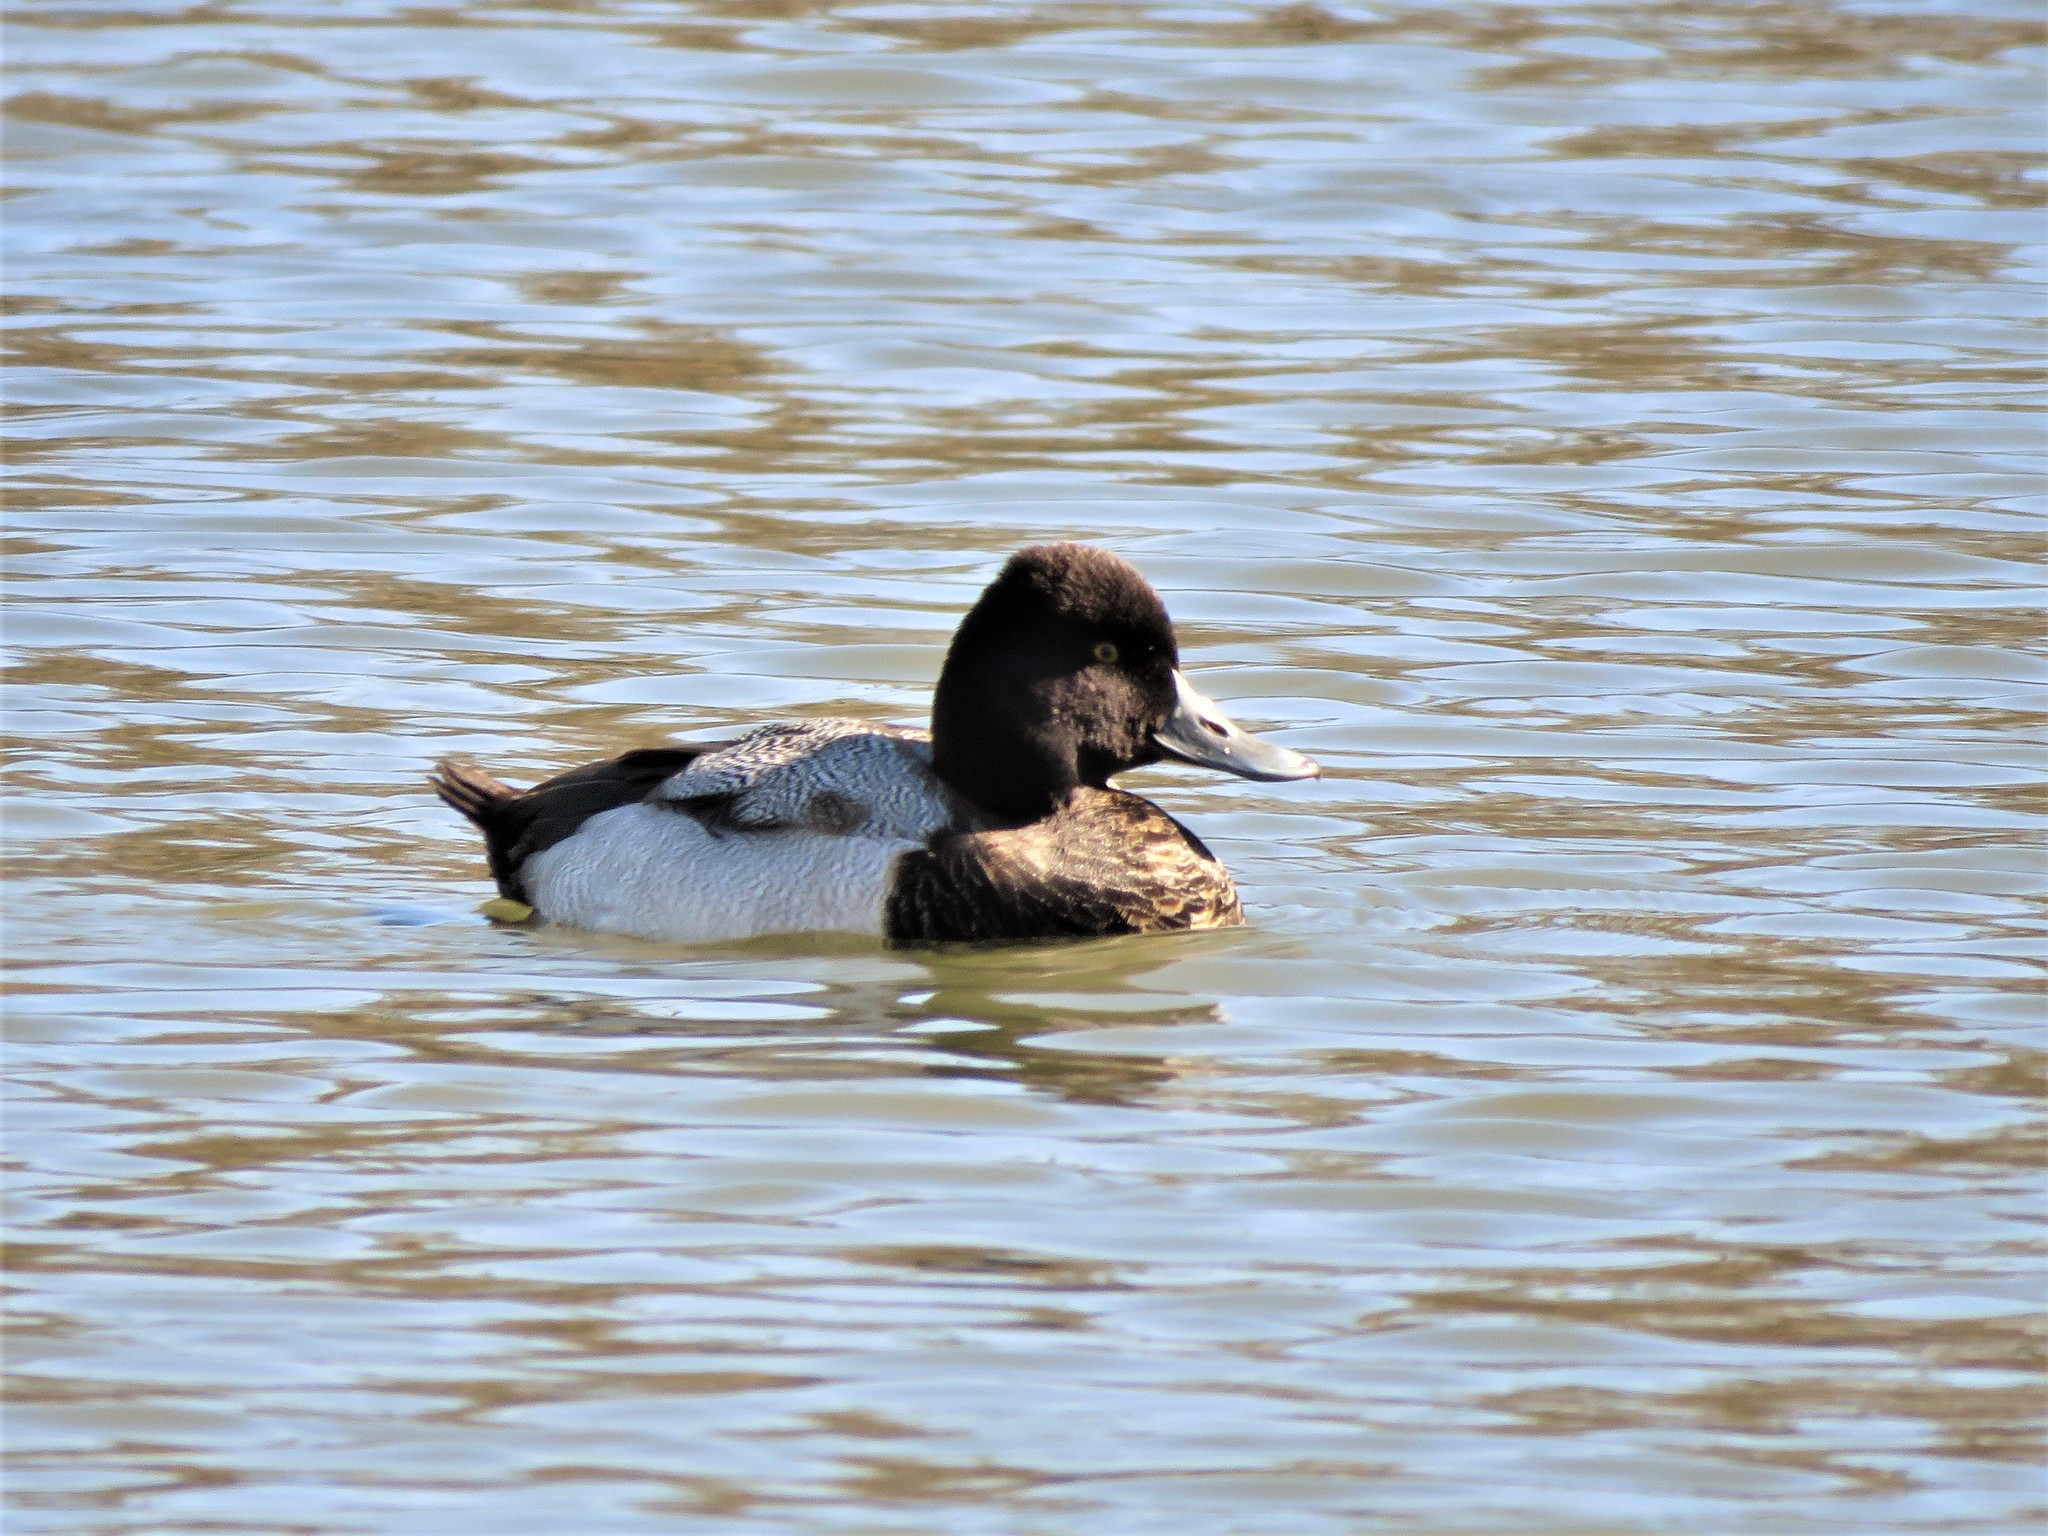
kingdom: Animalia
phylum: Chordata
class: Aves
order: Anseriformes
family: Anatidae
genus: Aythya
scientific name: Aythya affinis
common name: Lesser scaup
